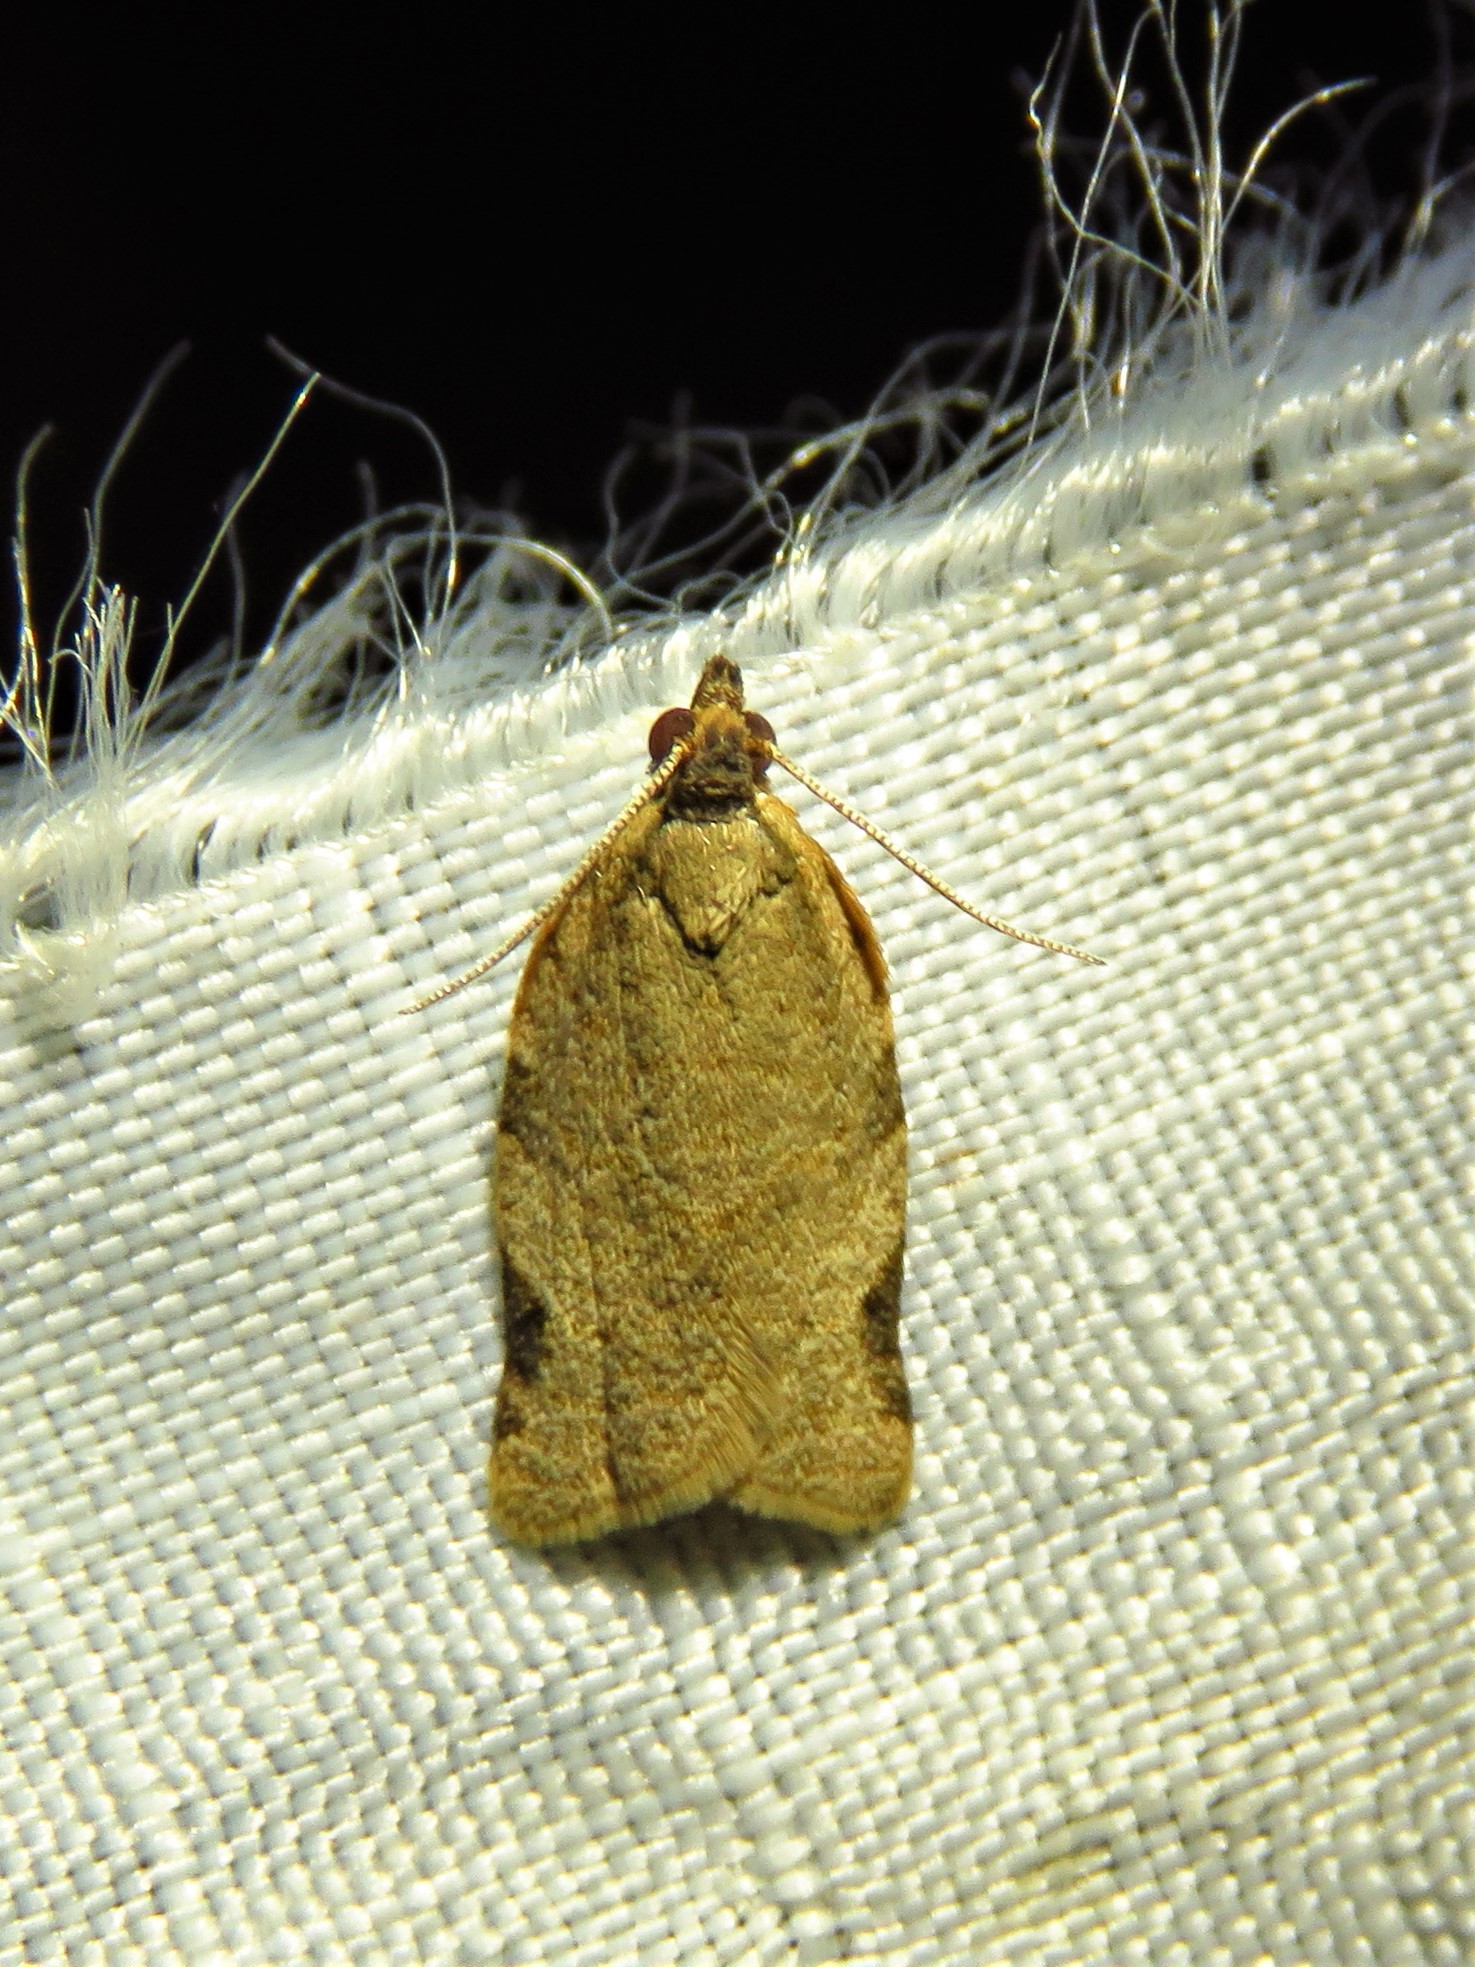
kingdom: Animalia
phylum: Arthropoda
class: Insecta
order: Lepidoptera
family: Tortricidae
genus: Clepsis
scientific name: Clepsis virescana
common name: Greenish apple moth
